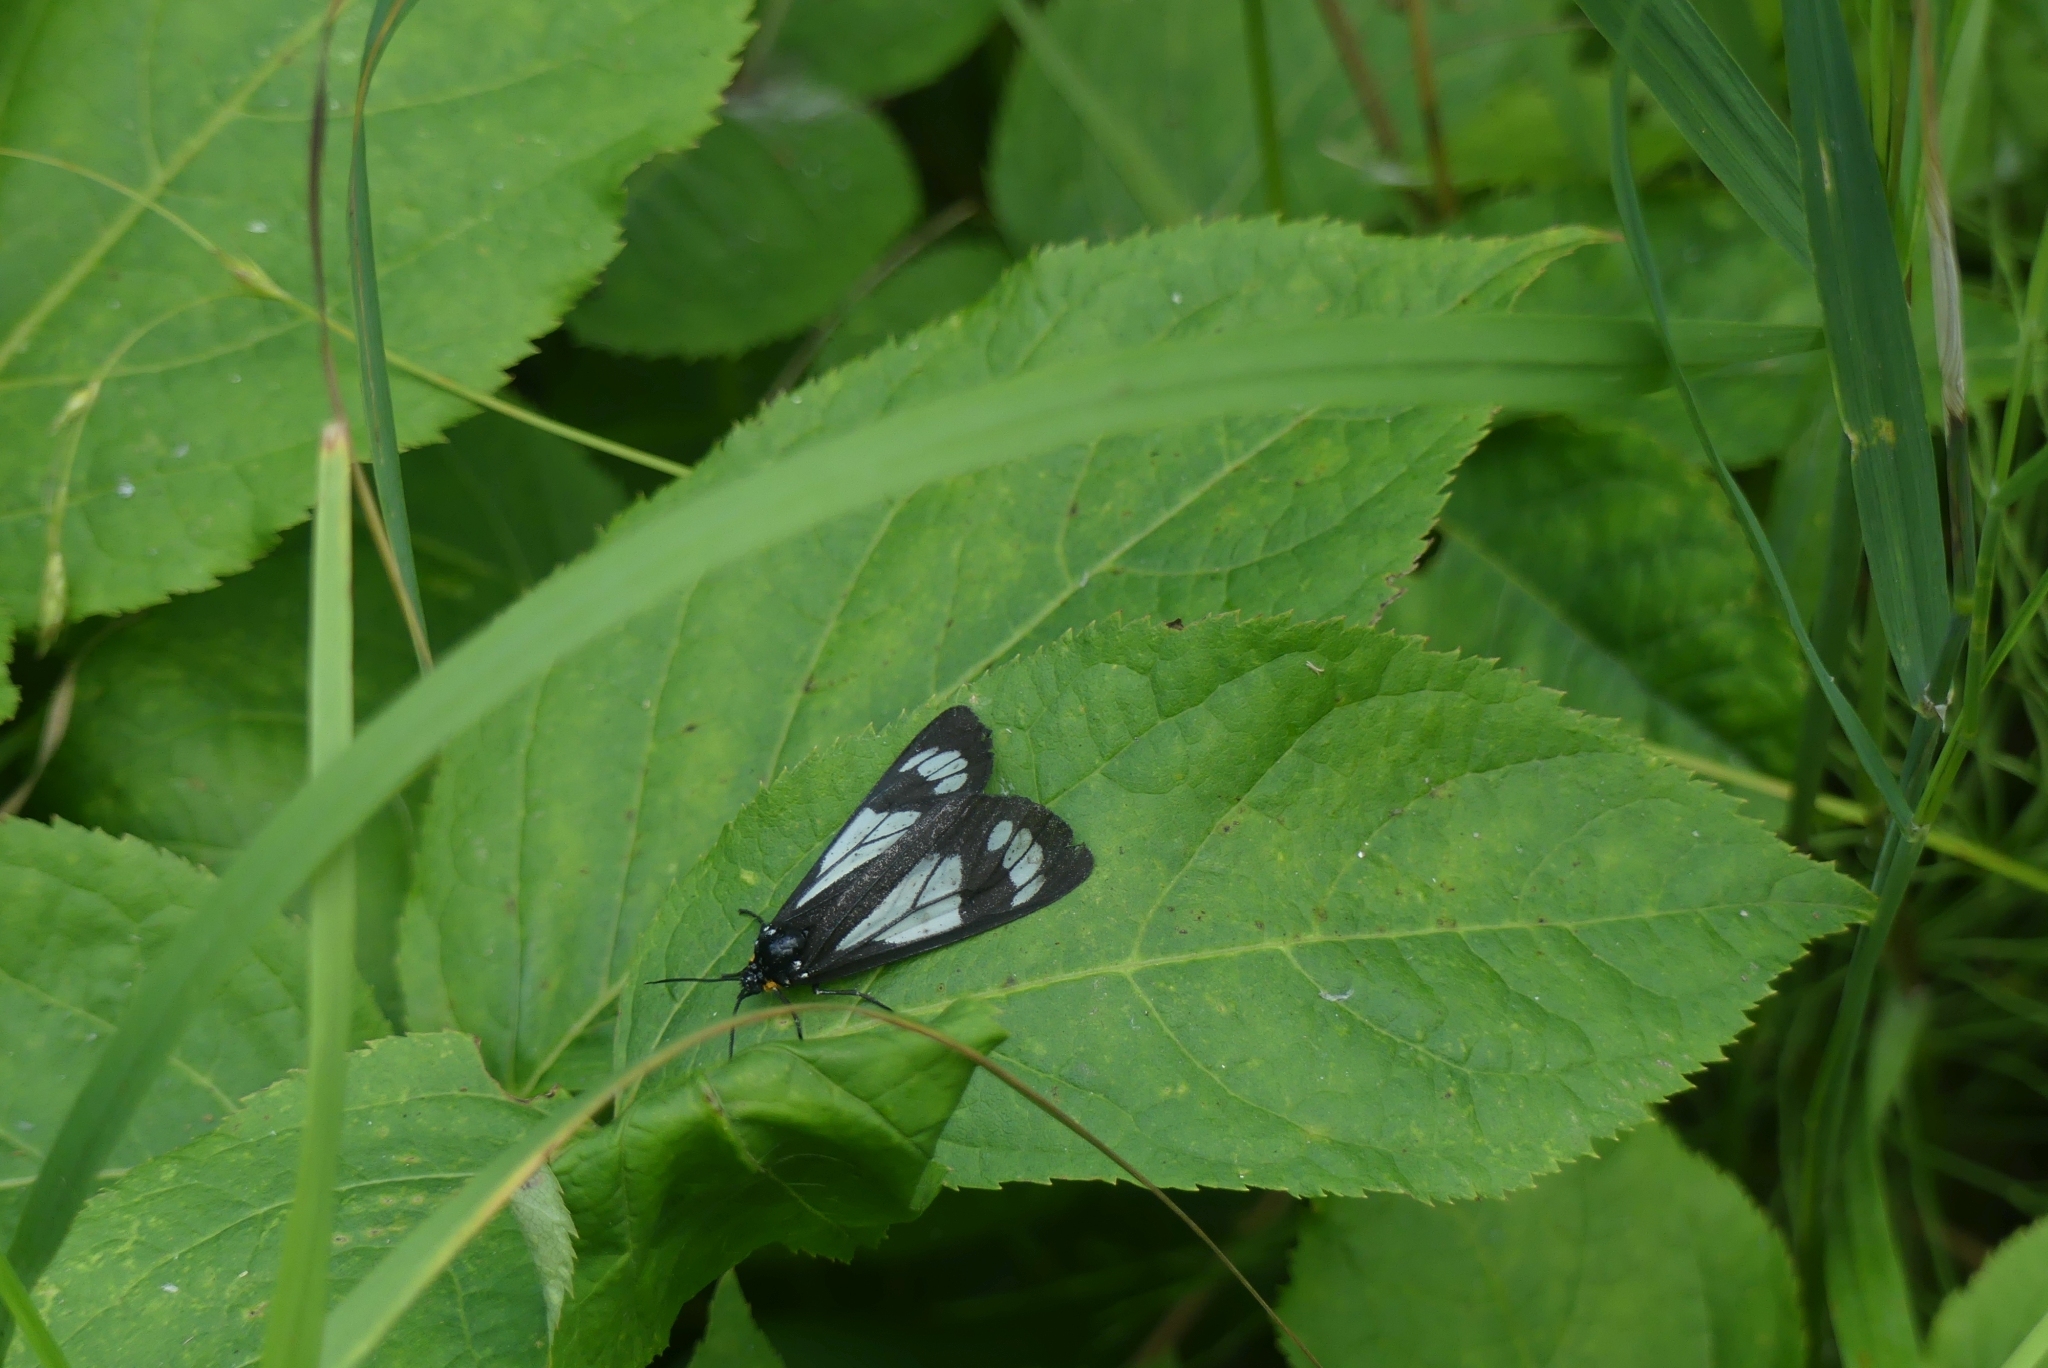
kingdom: Animalia
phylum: Arthropoda
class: Insecta
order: Lepidoptera
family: Erebidae
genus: Gnophaela
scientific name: Gnophaela vermiculata
